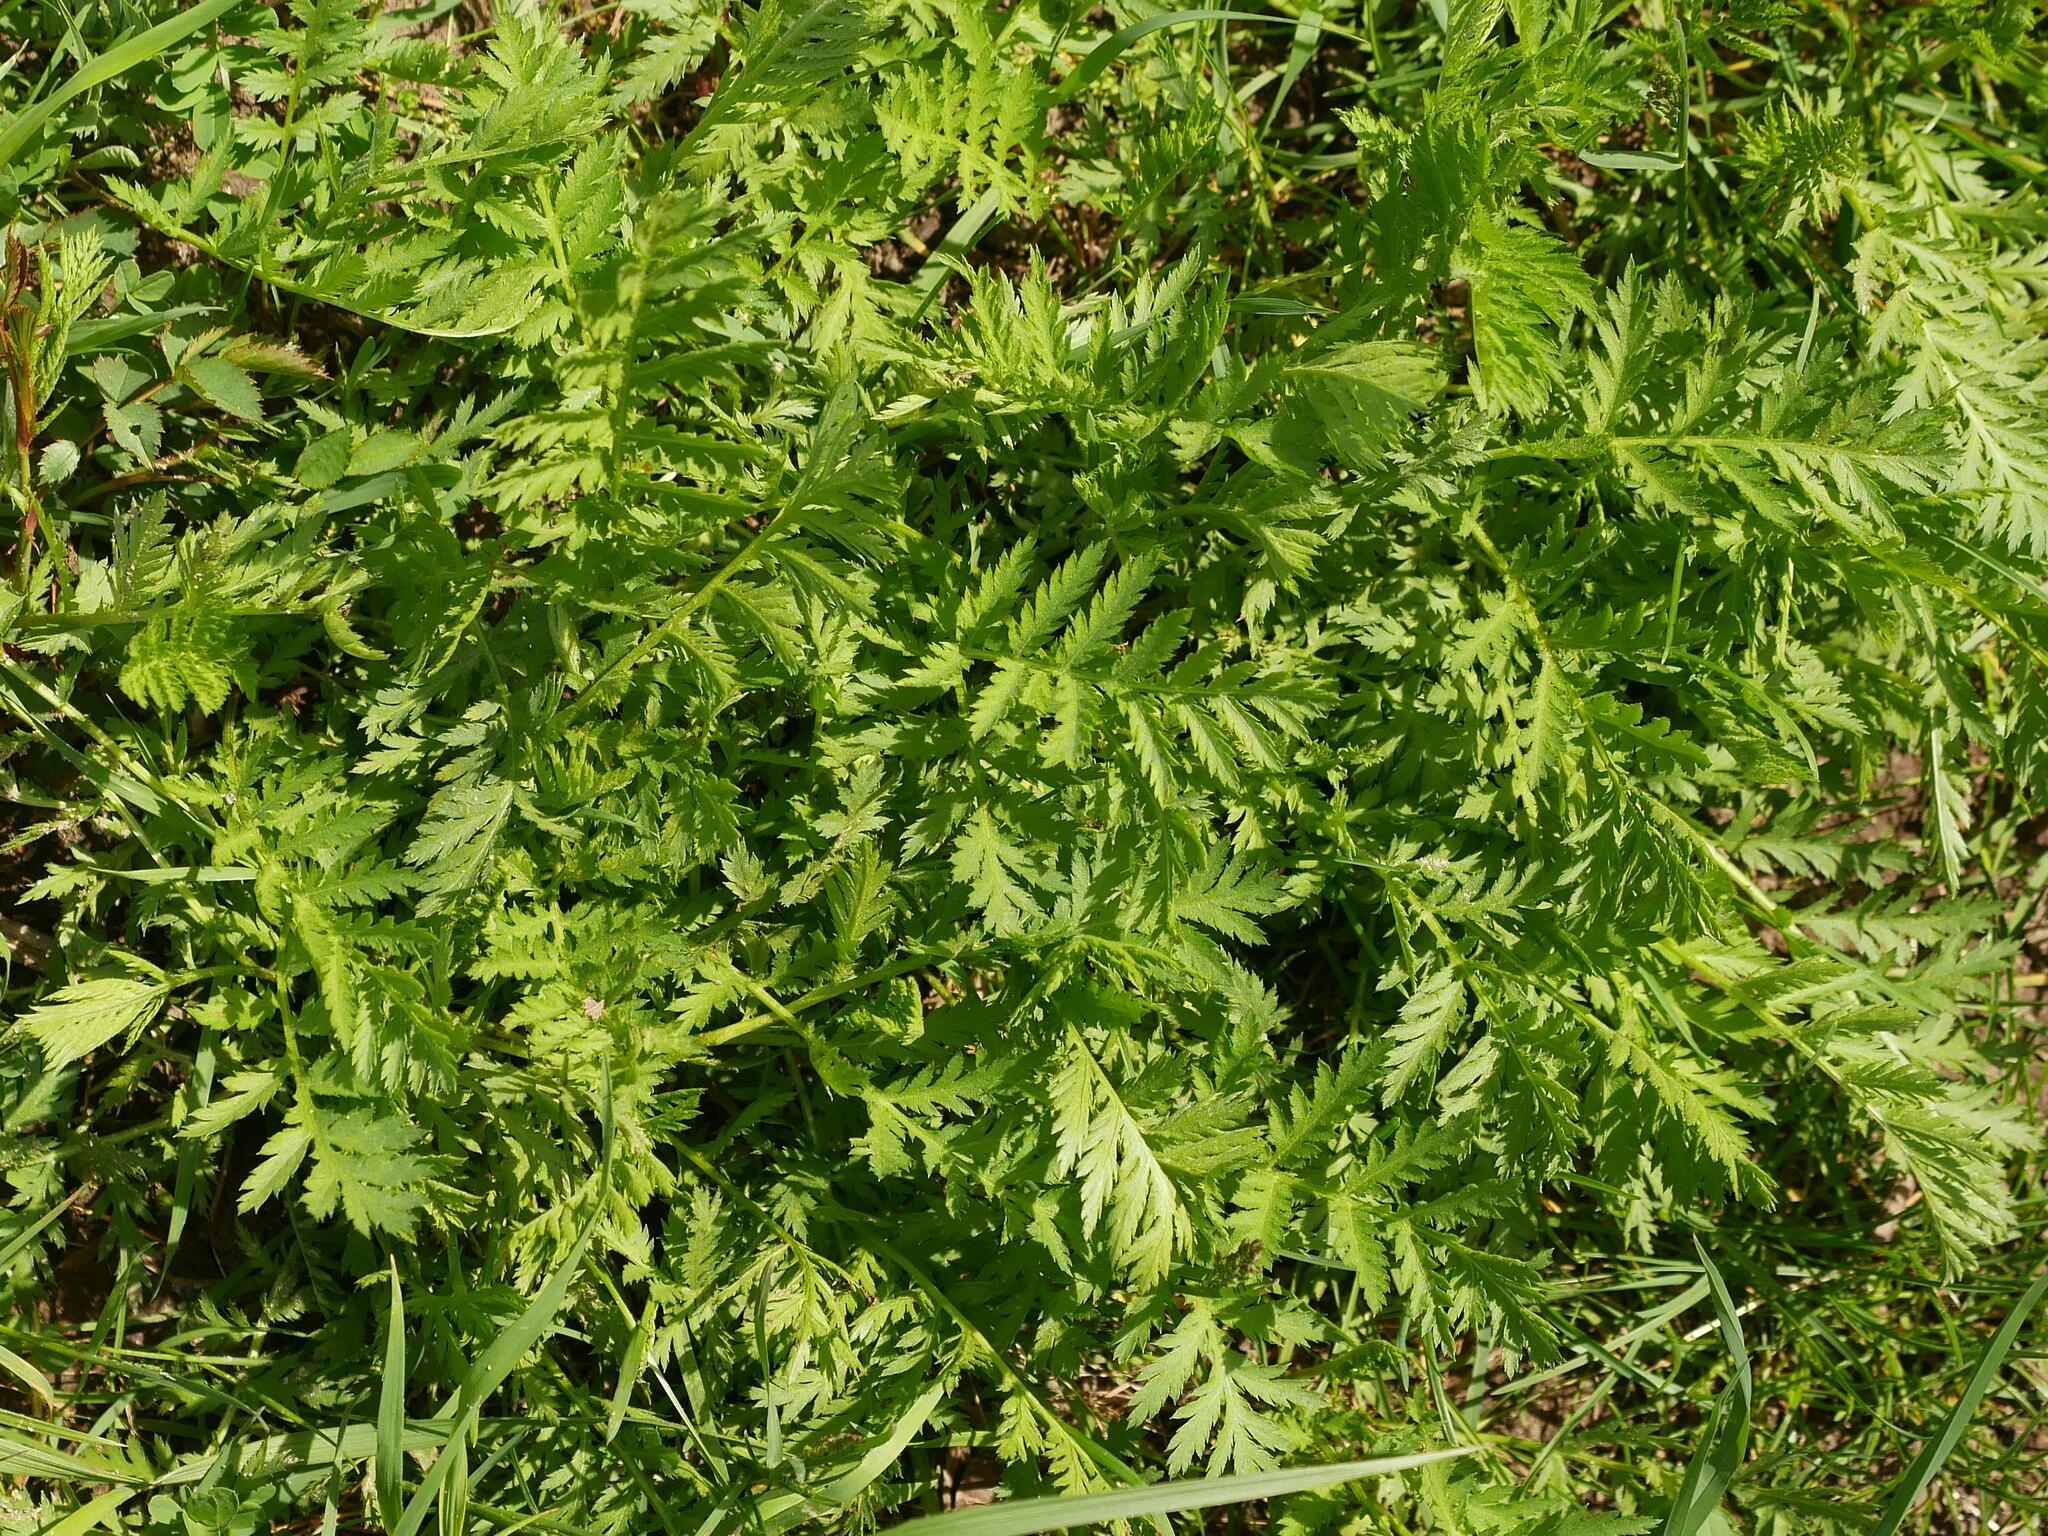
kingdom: Plantae
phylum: Tracheophyta
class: Magnoliopsida
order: Asterales
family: Asteraceae
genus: Tanacetum
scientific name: Tanacetum vulgare
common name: Common tansy
